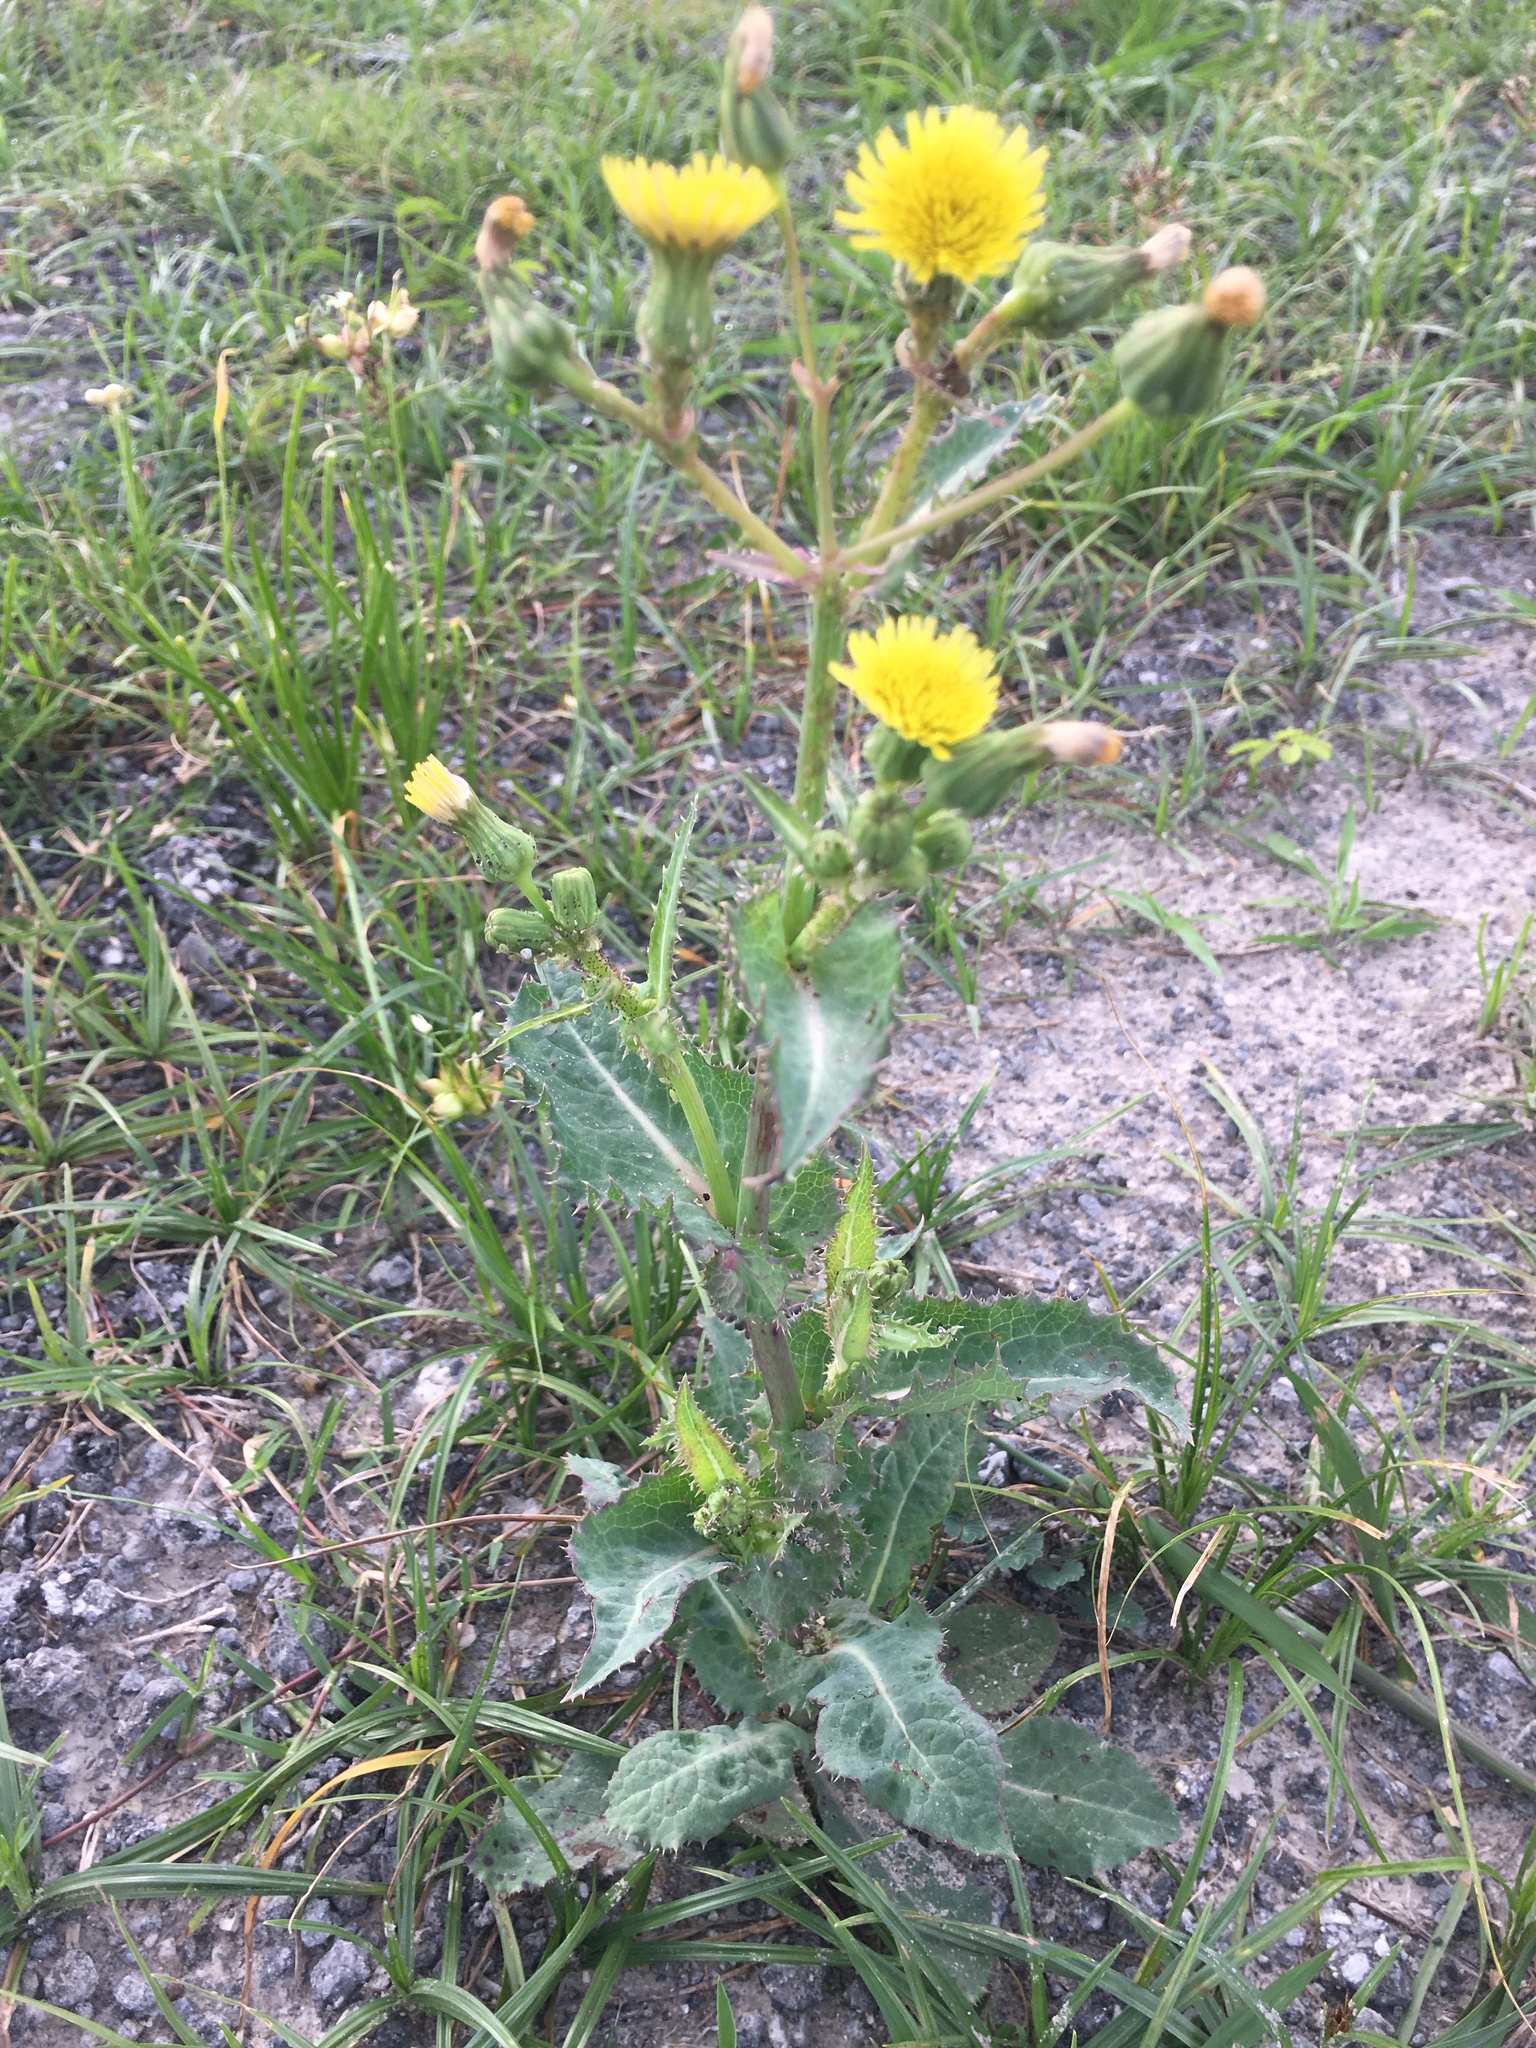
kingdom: Plantae
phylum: Tracheophyta
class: Magnoliopsida
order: Asterales
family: Asteraceae
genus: Sonchus
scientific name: Sonchus asper
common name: Prickly sow-thistle
